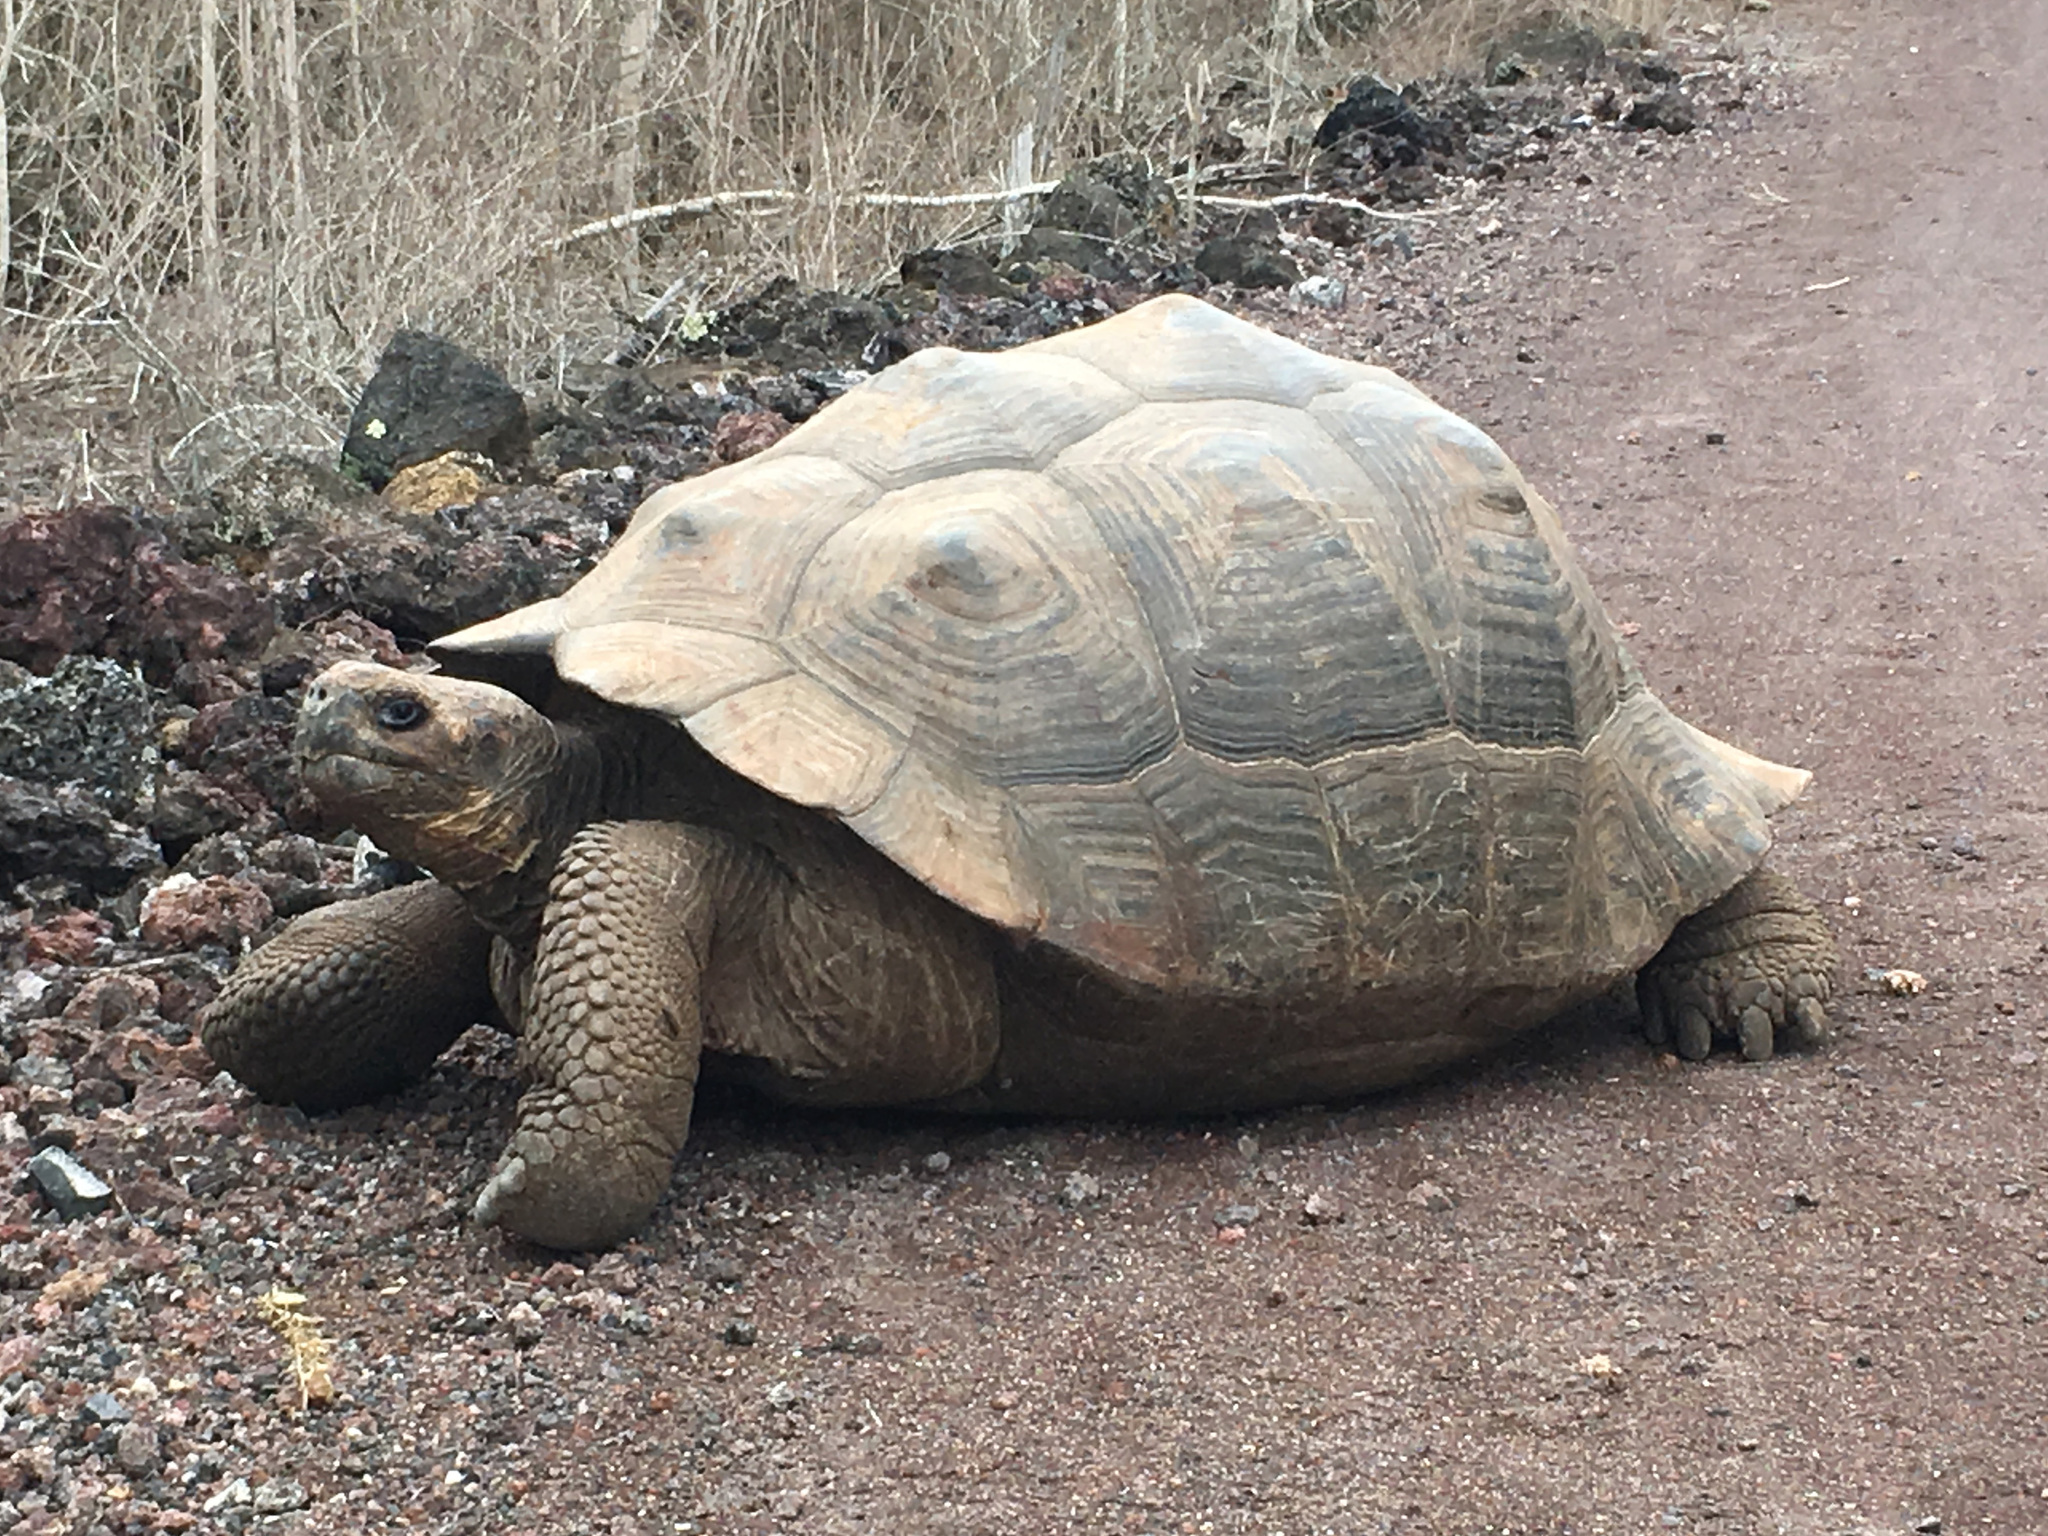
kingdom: Animalia
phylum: Chordata
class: Testudines
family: Testudinidae
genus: Chelonoidis
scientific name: Chelonoidis guntheri
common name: Sierra negra giant tortoise
